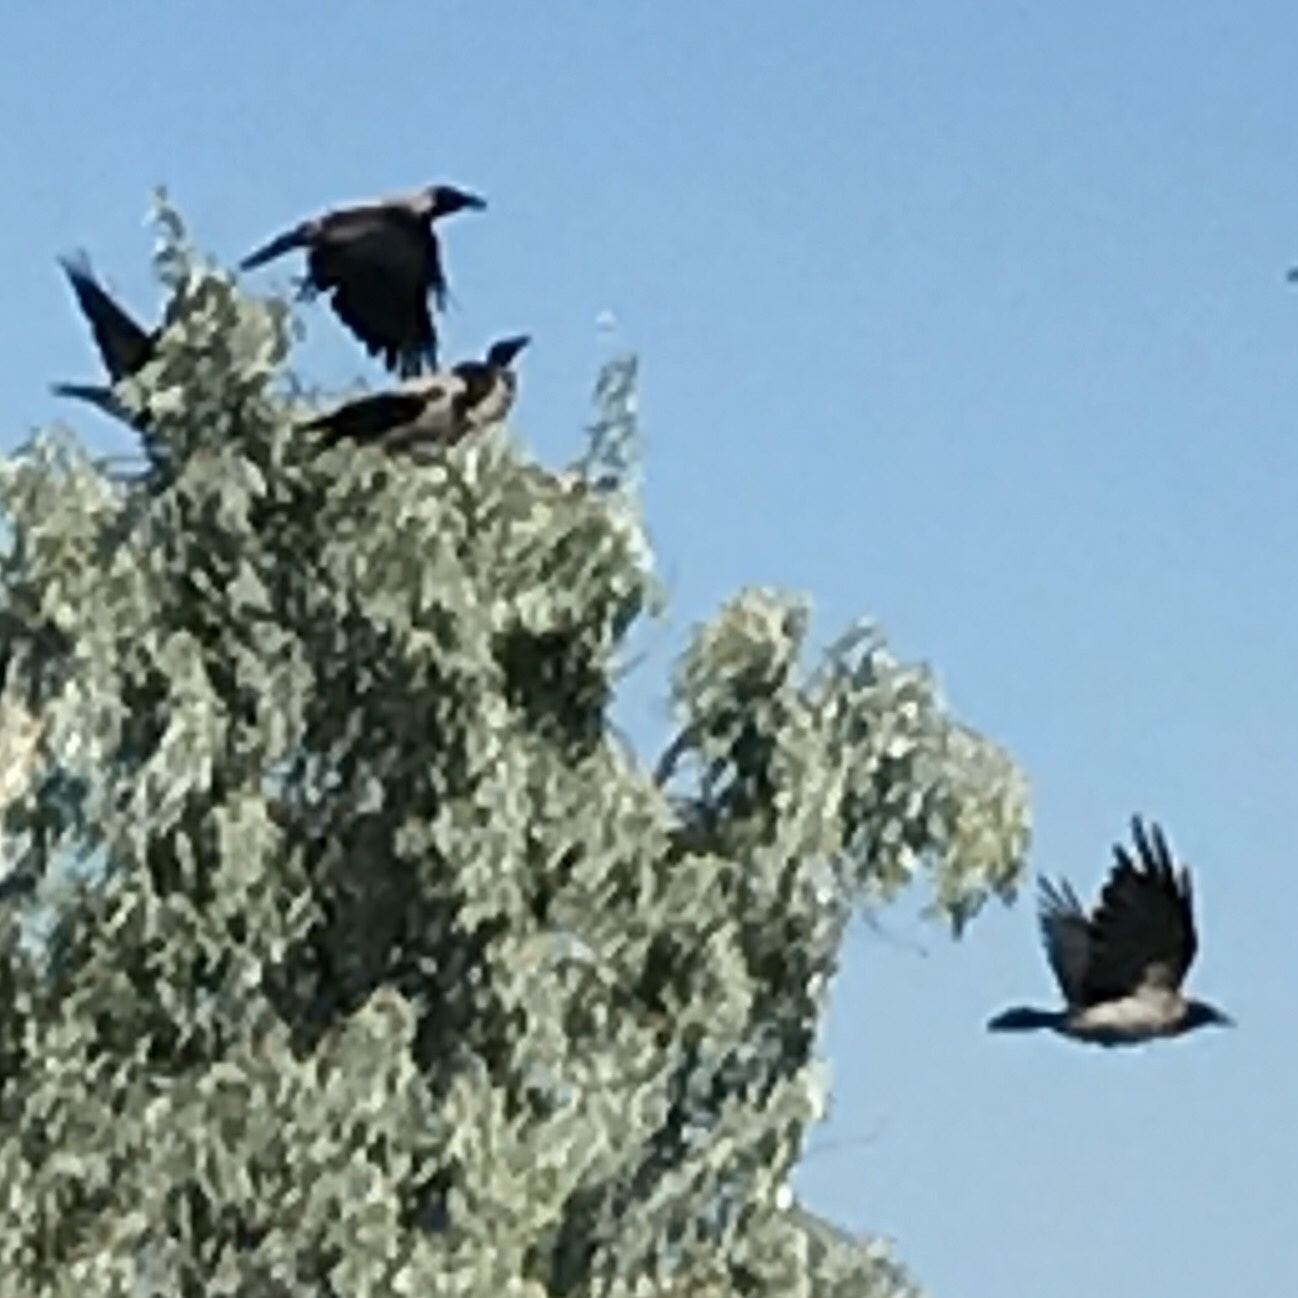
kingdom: Animalia
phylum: Chordata
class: Aves
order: Passeriformes
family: Corvidae
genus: Corvus
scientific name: Corvus cornix
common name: Hooded crow
